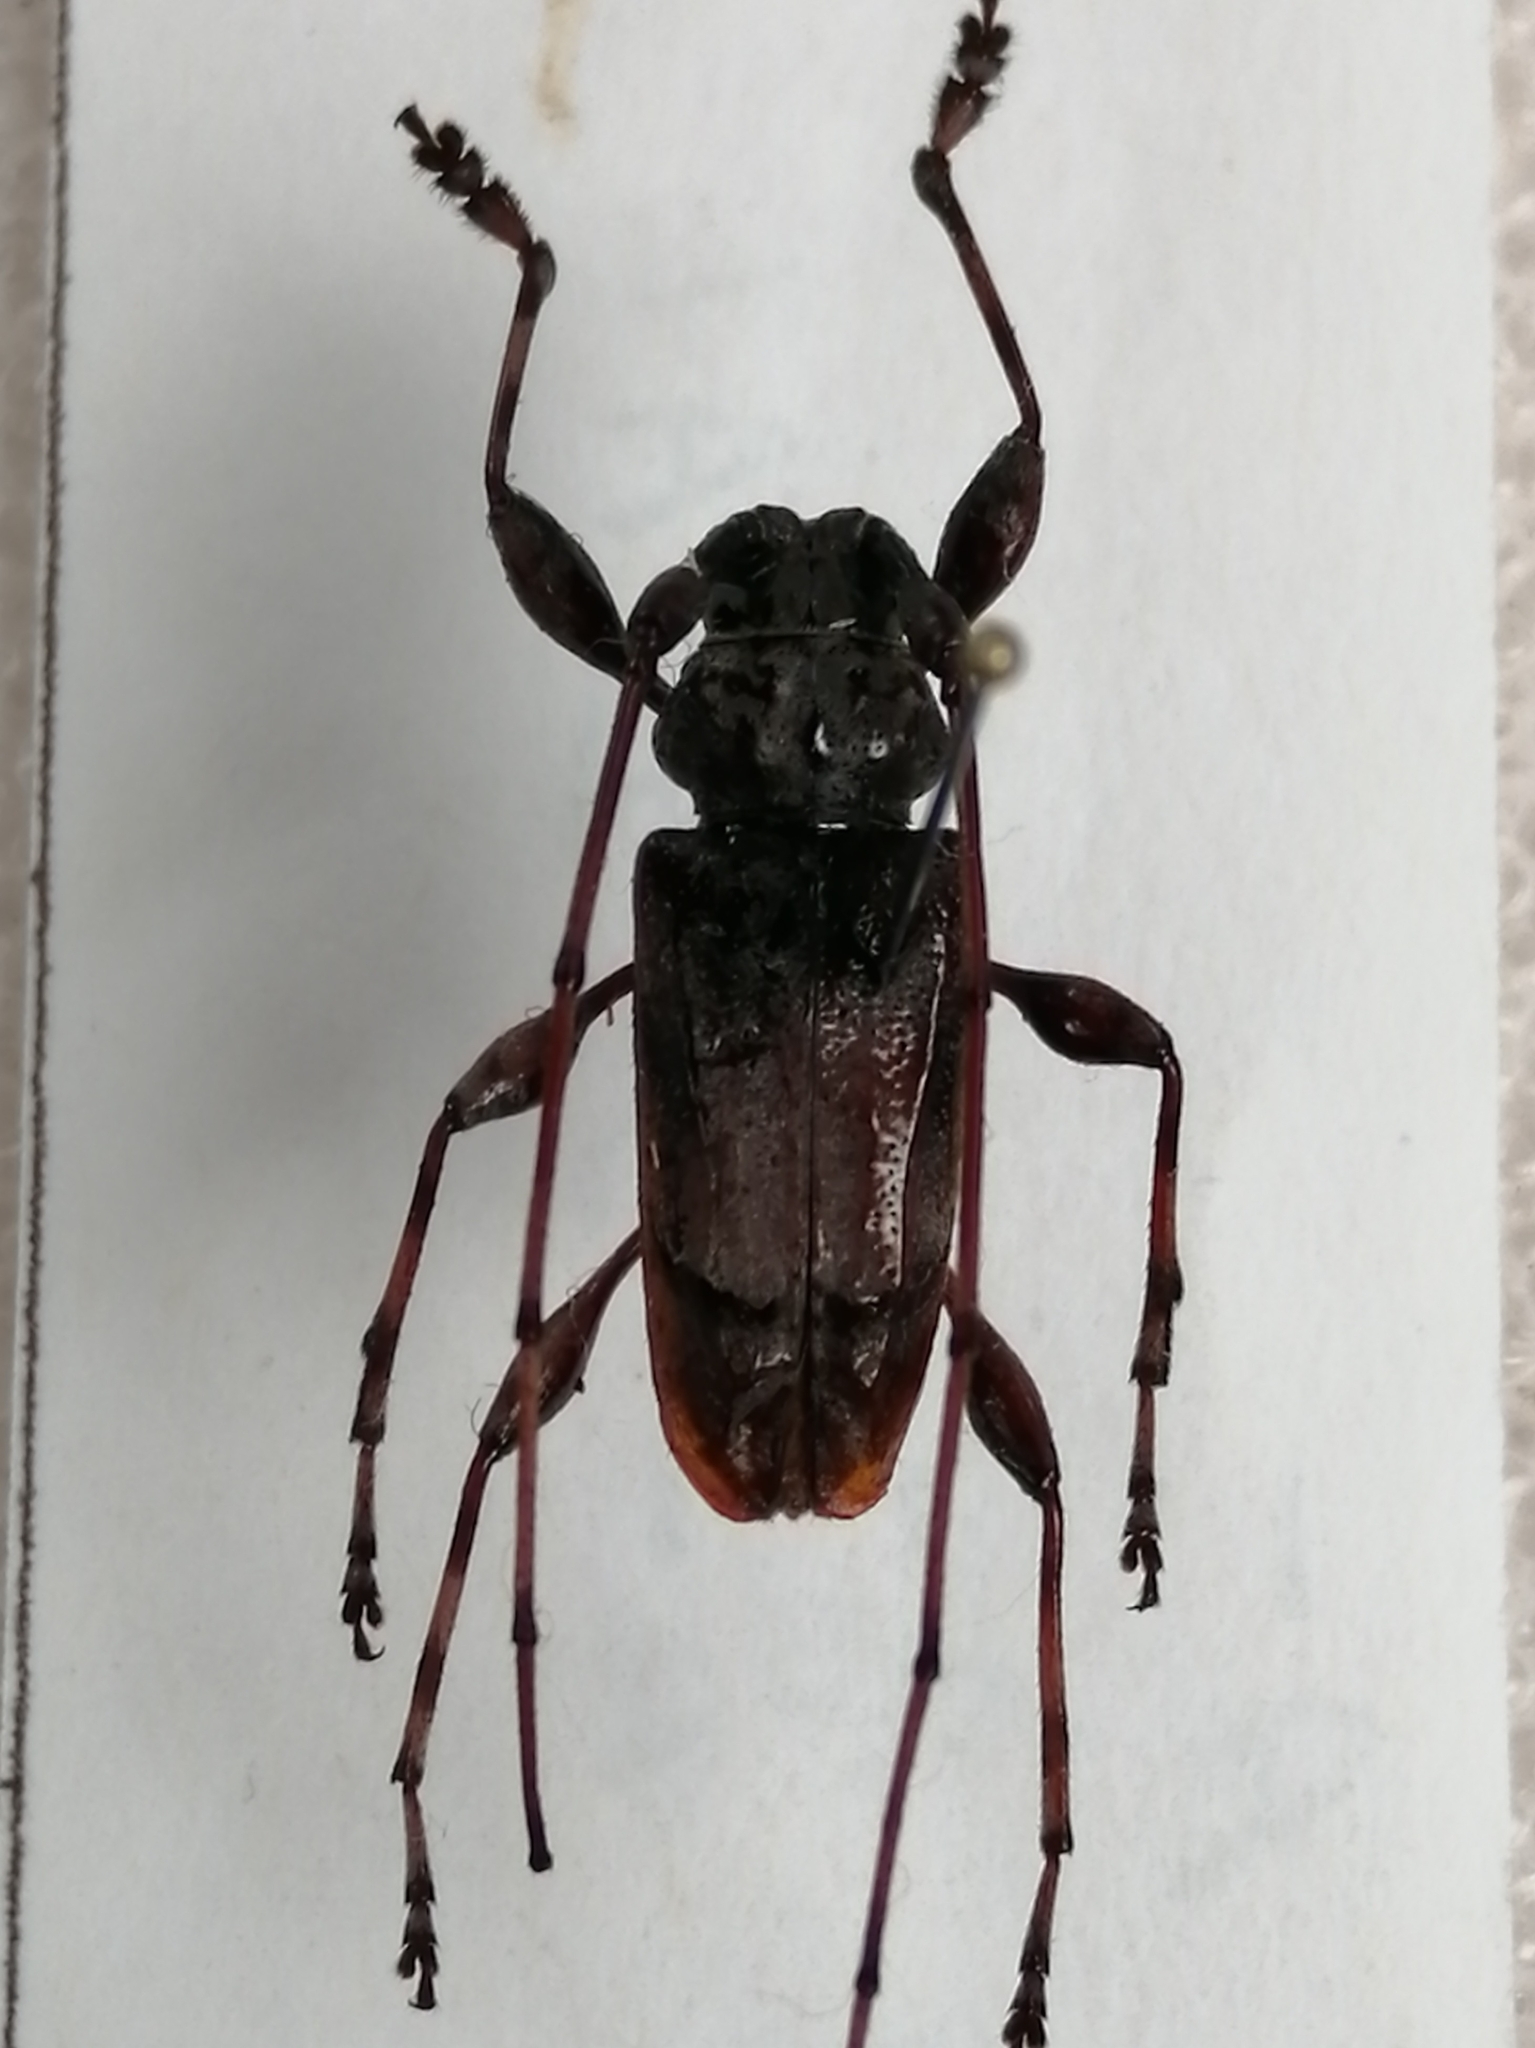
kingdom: Animalia
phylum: Arthropoda
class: Insecta
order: Coleoptera
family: Cerambycidae
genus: Olenosus
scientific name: Olenosus serrimanus
